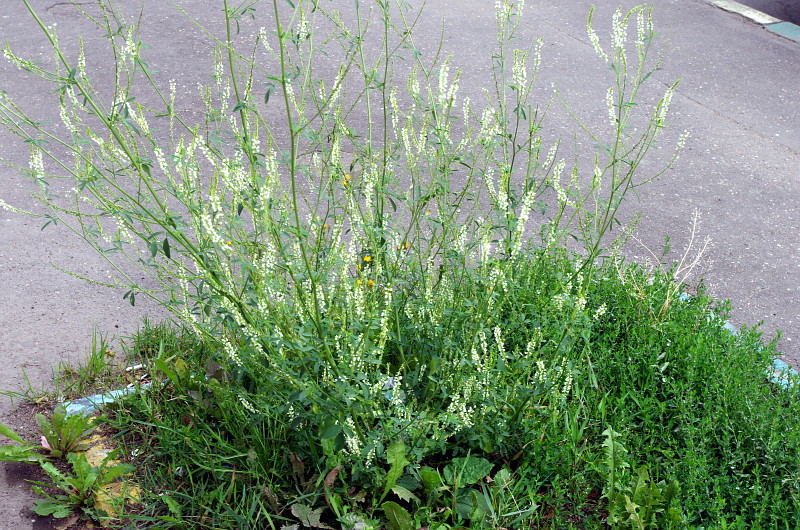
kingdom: Plantae
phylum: Tracheophyta
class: Magnoliopsida
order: Fabales
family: Fabaceae
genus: Melilotus
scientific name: Melilotus albus
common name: White melilot
